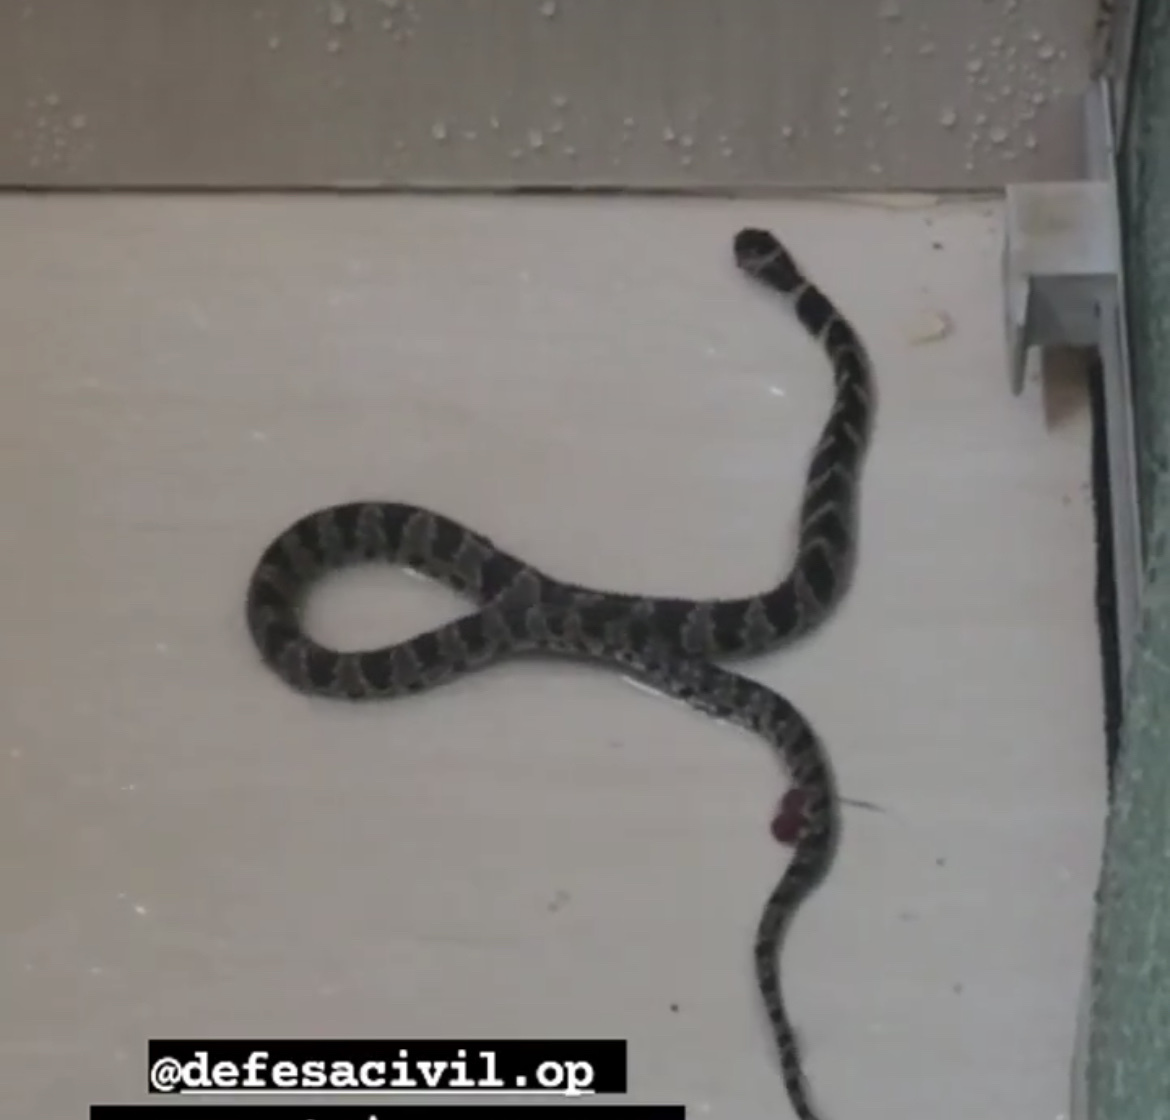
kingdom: Animalia
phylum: Chordata
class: Squamata
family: Colubridae
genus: Dipsas
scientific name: Dipsas mikanii
